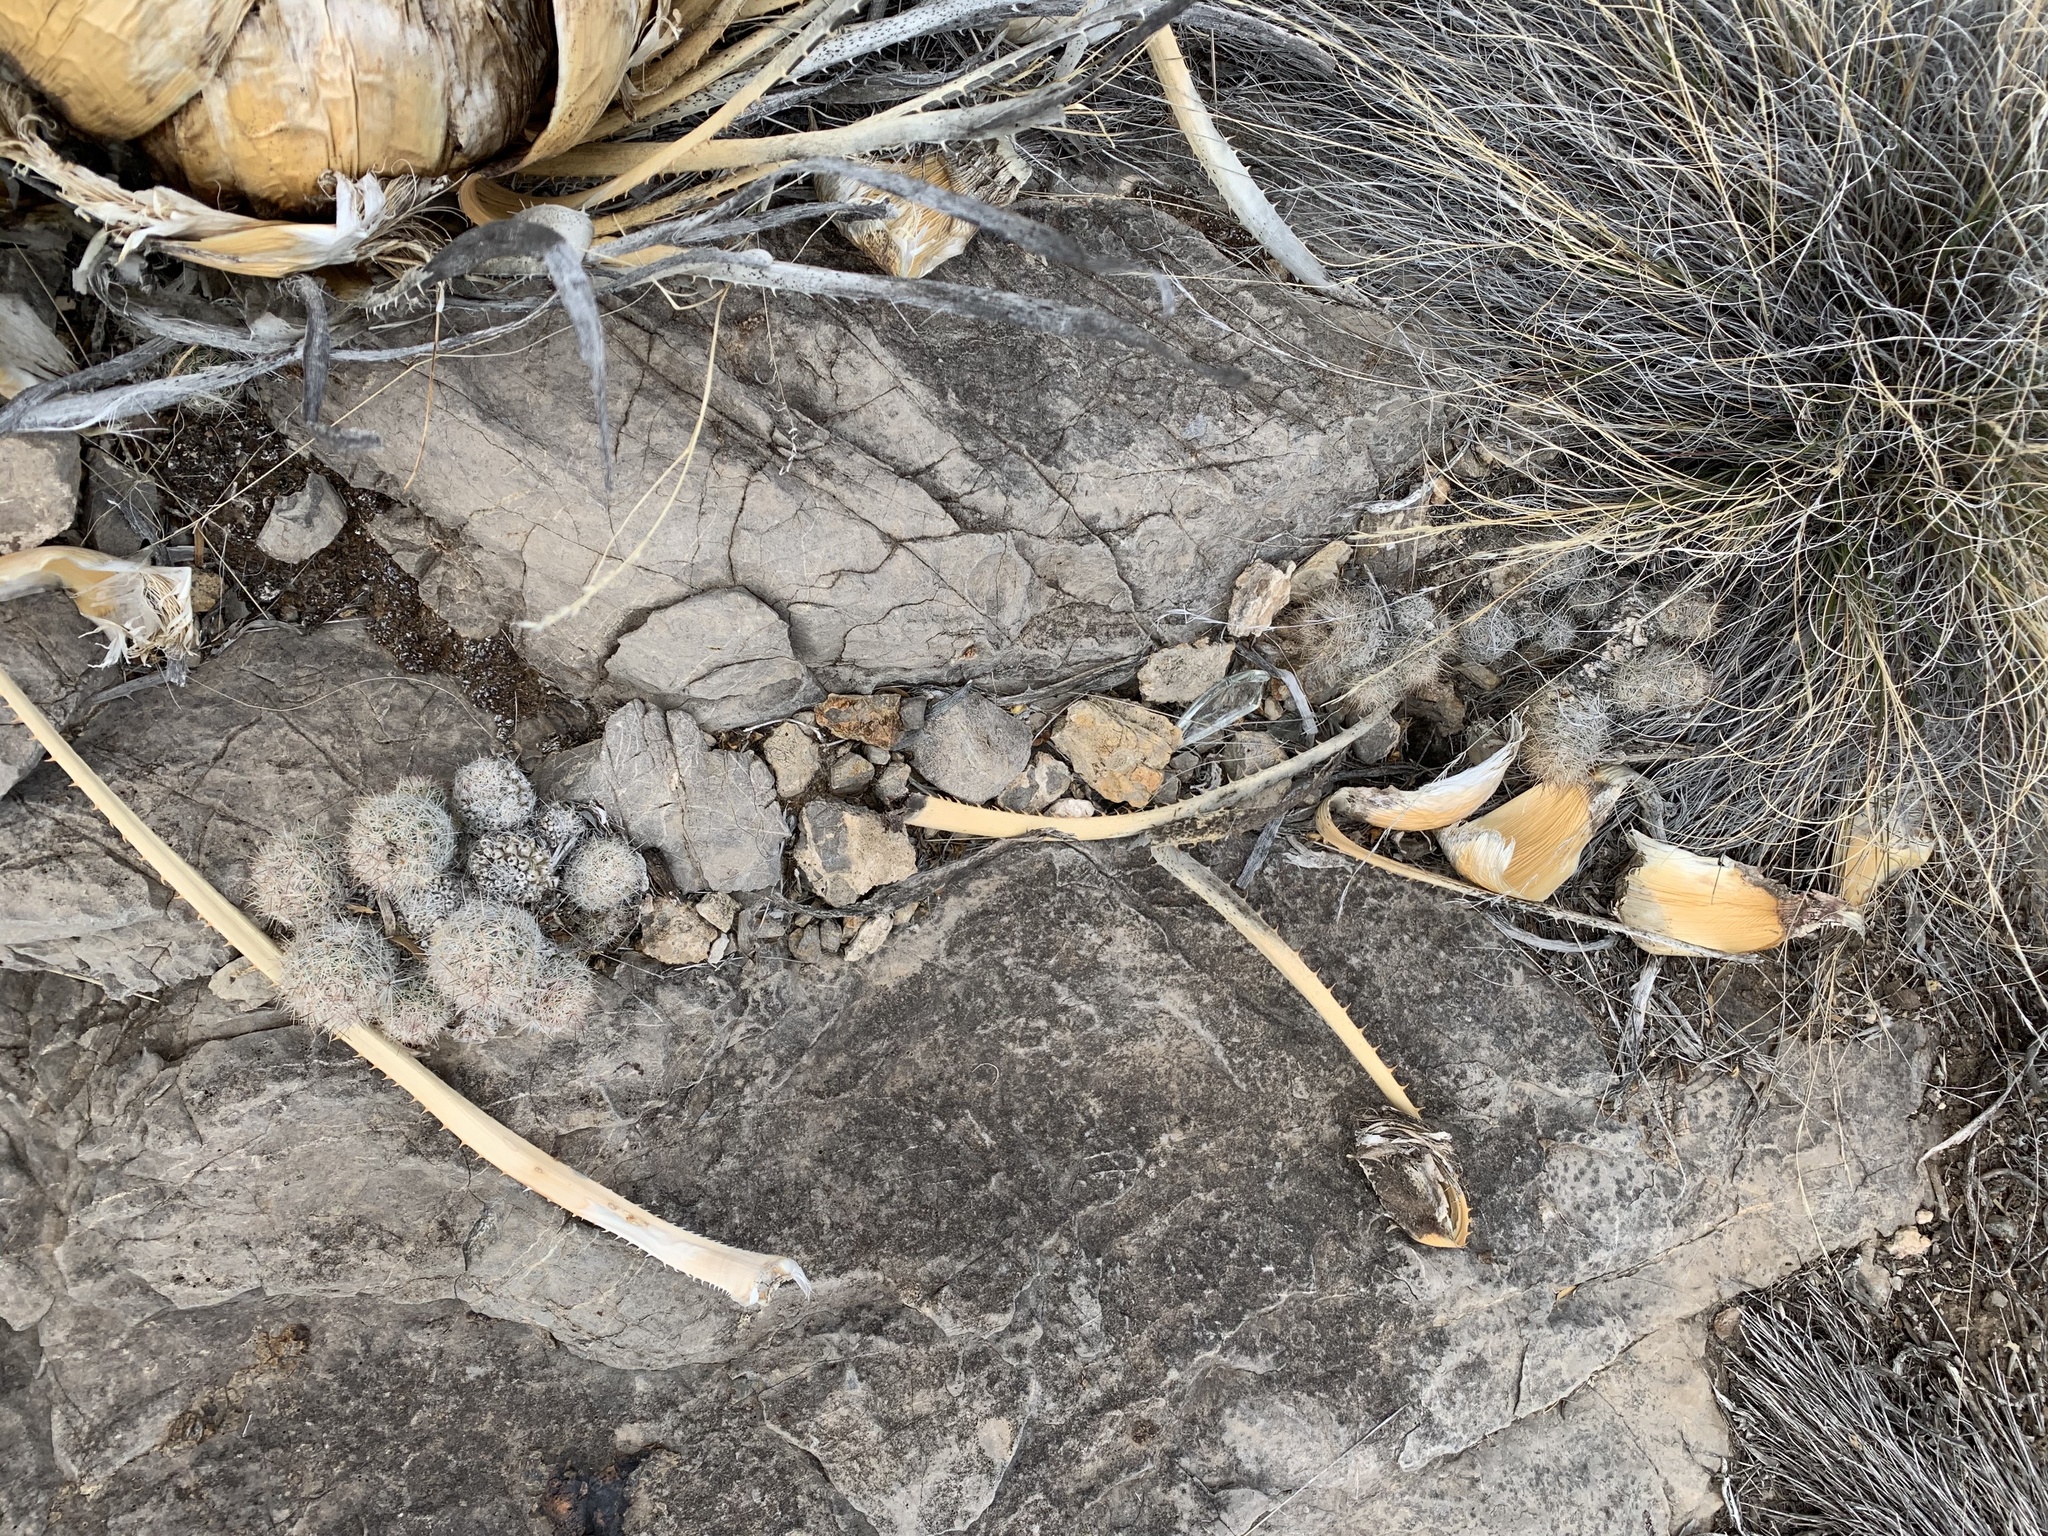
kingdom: Plantae
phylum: Tracheophyta
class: Magnoliopsida
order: Caryophyllales
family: Cactaceae
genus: Pelecyphora
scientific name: Pelecyphora tuberculosa
